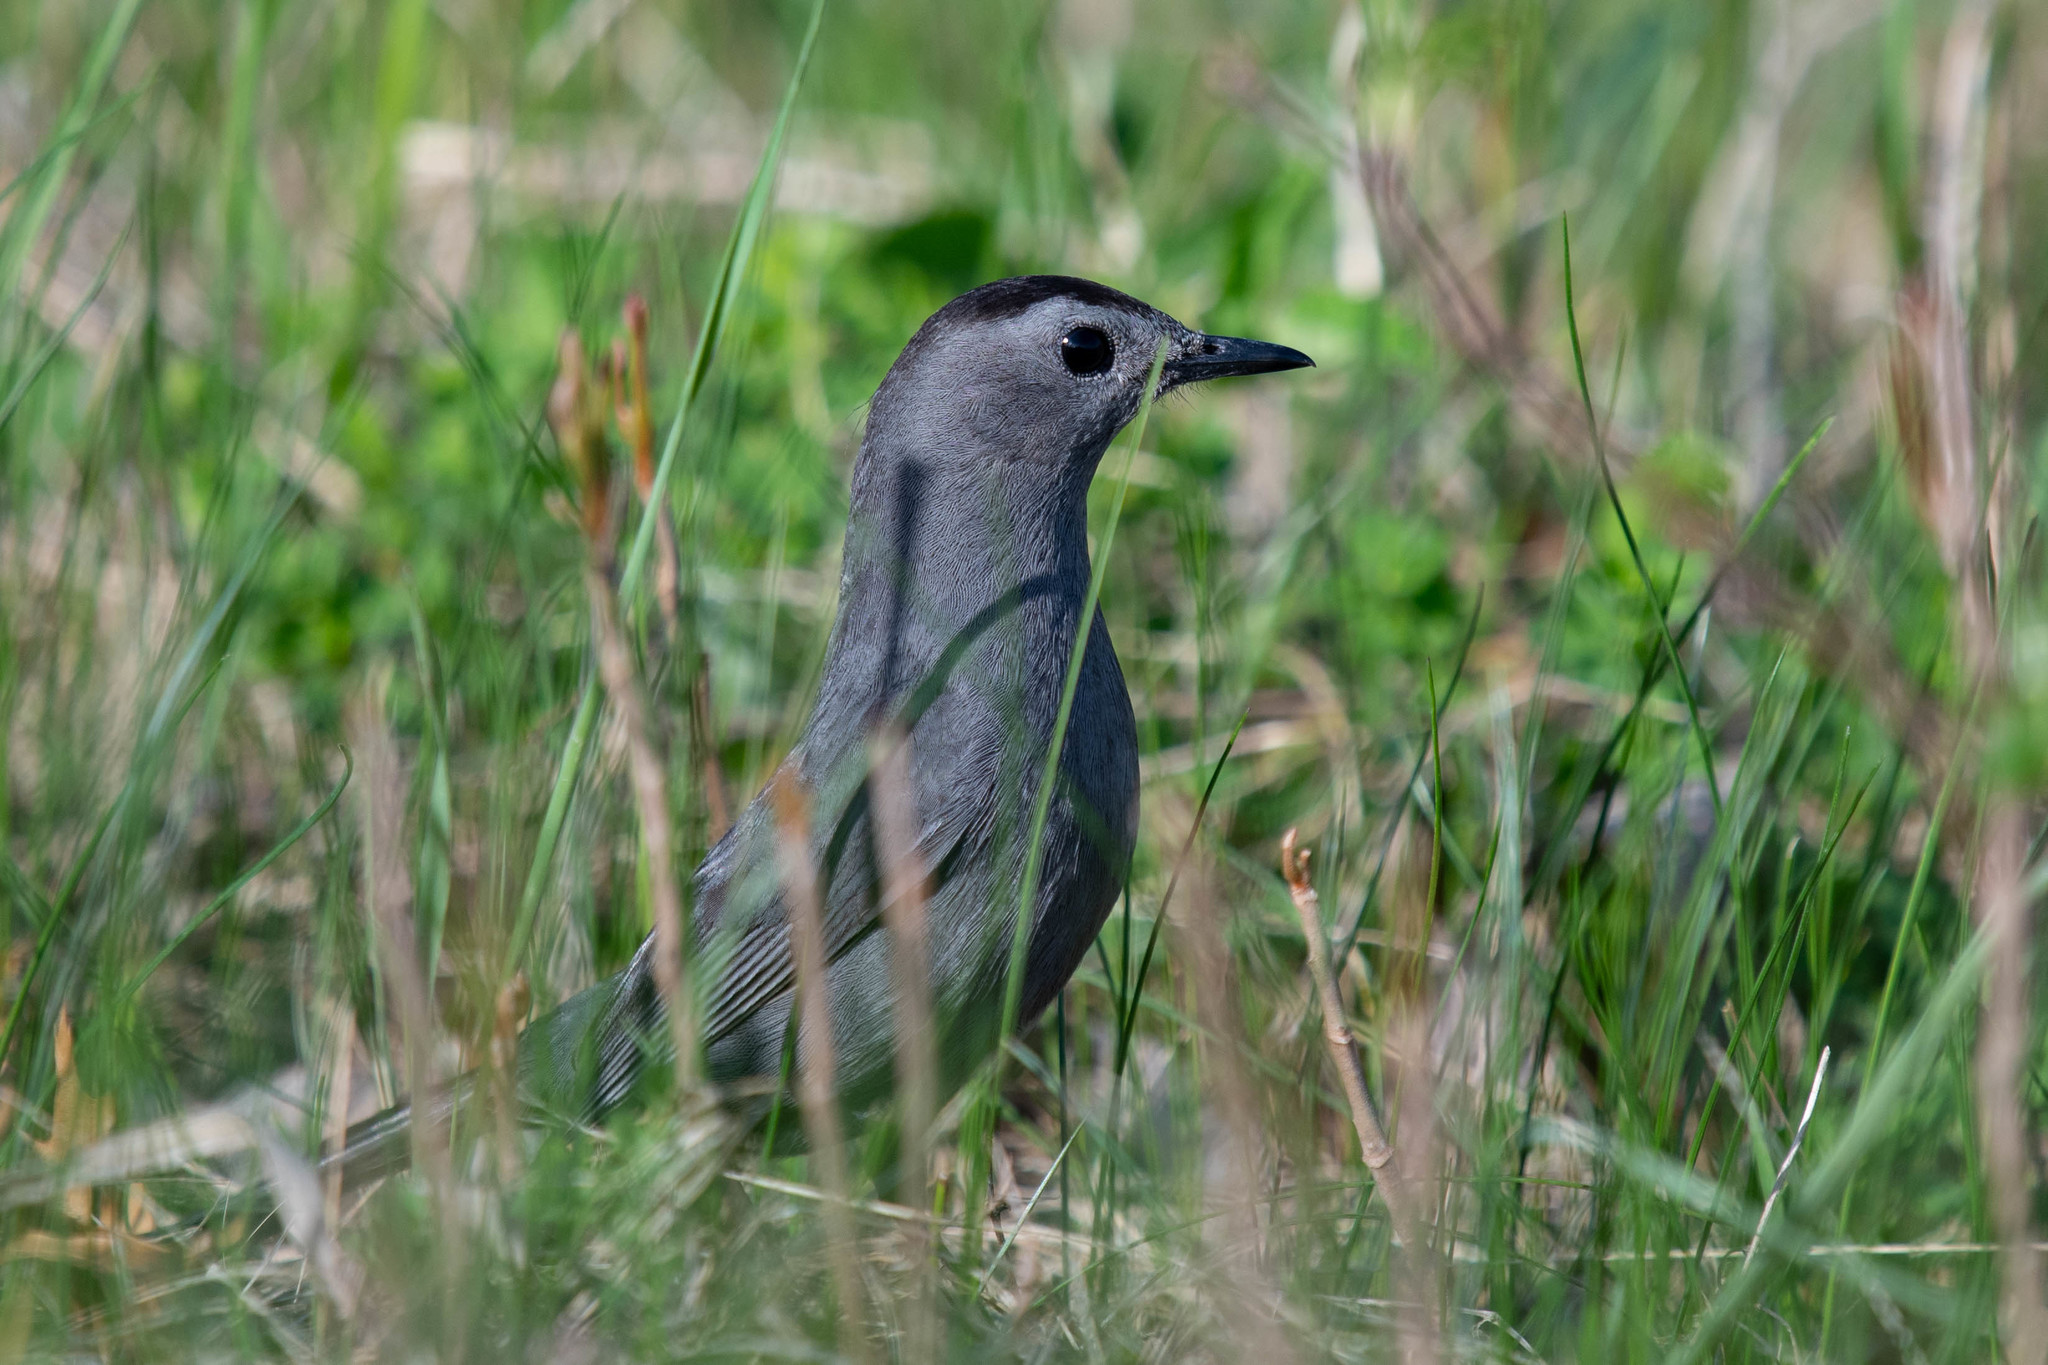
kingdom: Animalia
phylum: Chordata
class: Aves
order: Passeriformes
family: Mimidae
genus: Dumetella
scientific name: Dumetella carolinensis
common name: Gray catbird
